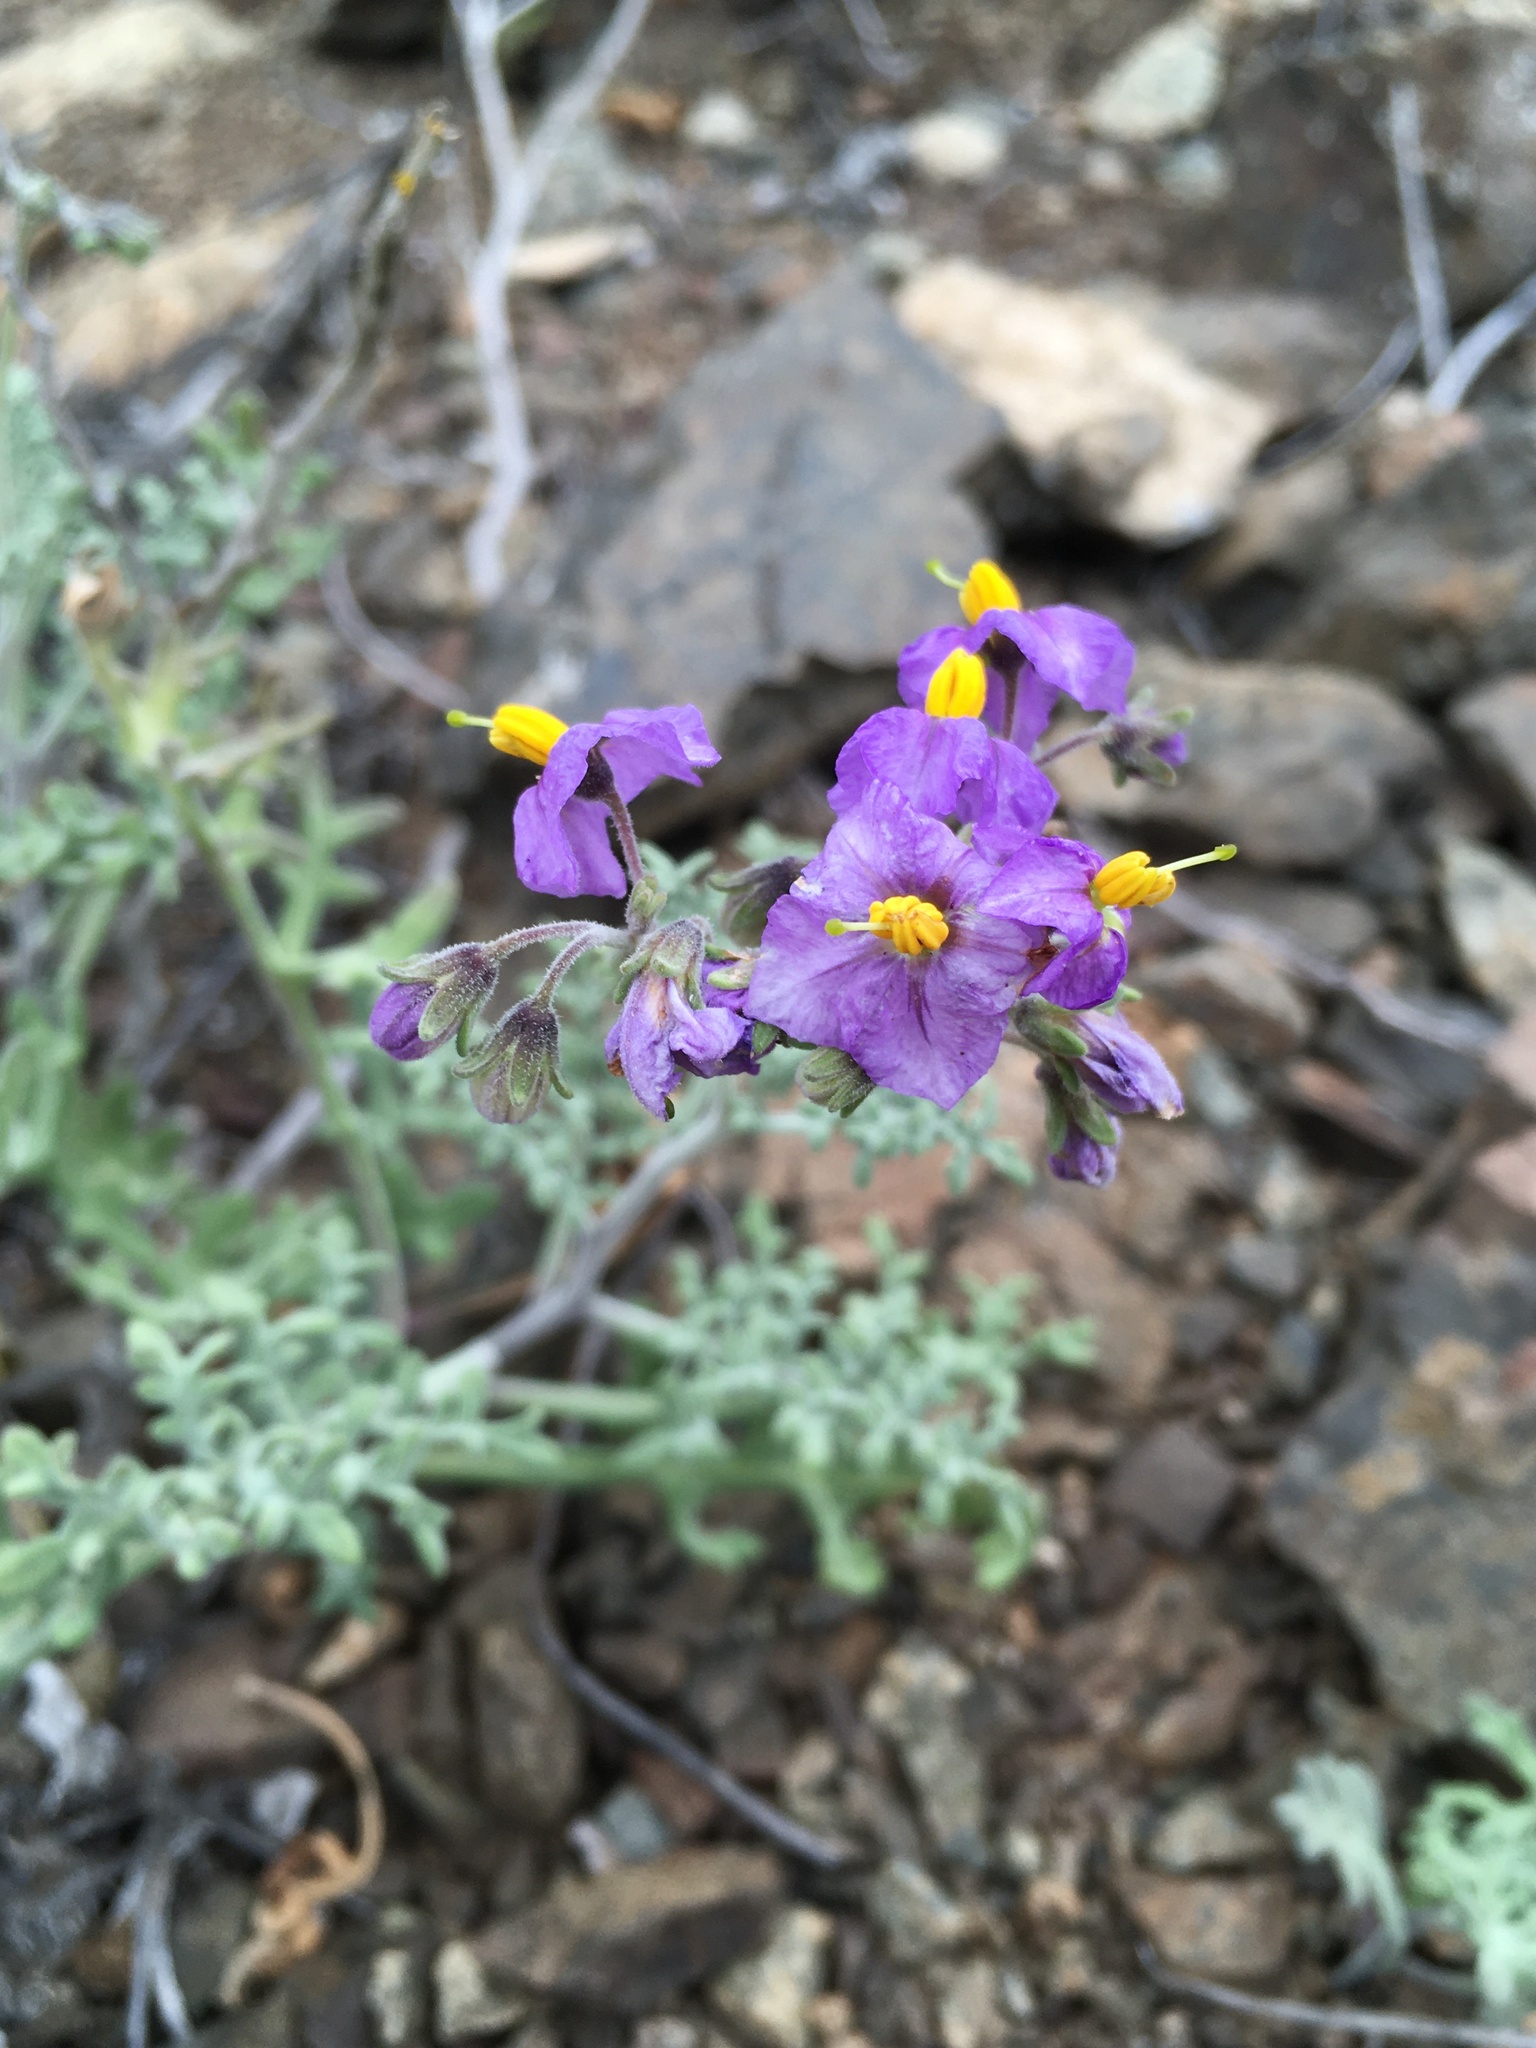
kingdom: Plantae
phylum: Tracheophyta
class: Magnoliopsida
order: Solanales
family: Solanaceae
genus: Solanum
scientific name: Solanum remyanum
